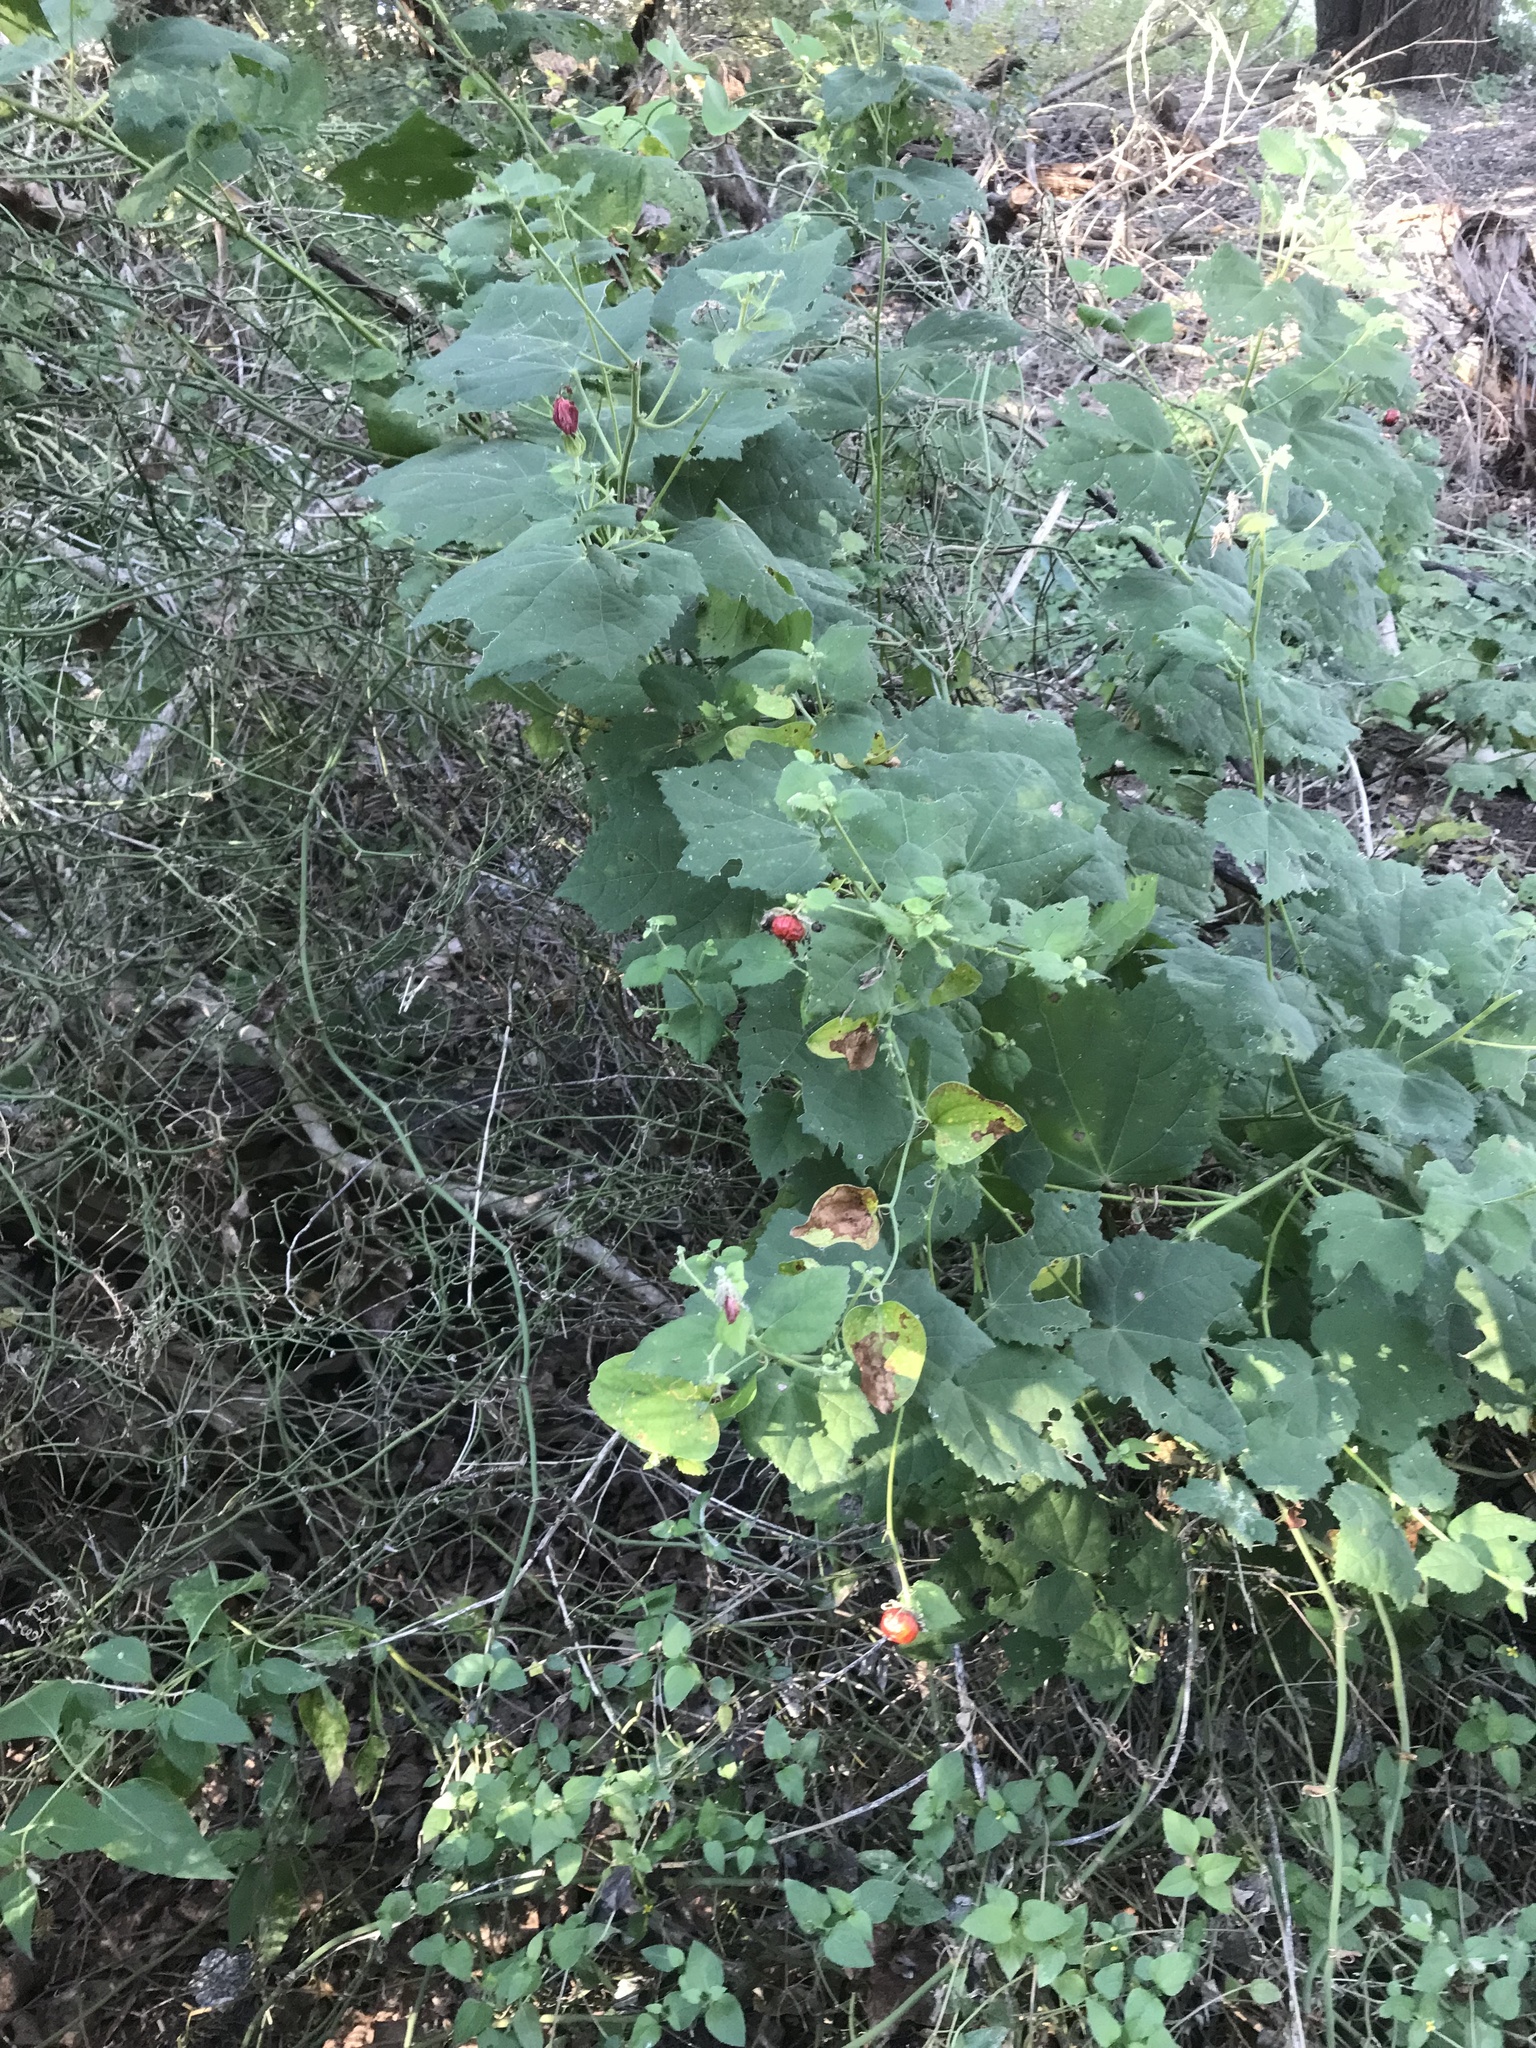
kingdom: Plantae
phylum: Tracheophyta
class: Magnoliopsida
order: Malvales
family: Malvaceae
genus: Malvaviscus
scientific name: Malvaviscus arboreus
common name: Wax mallow
